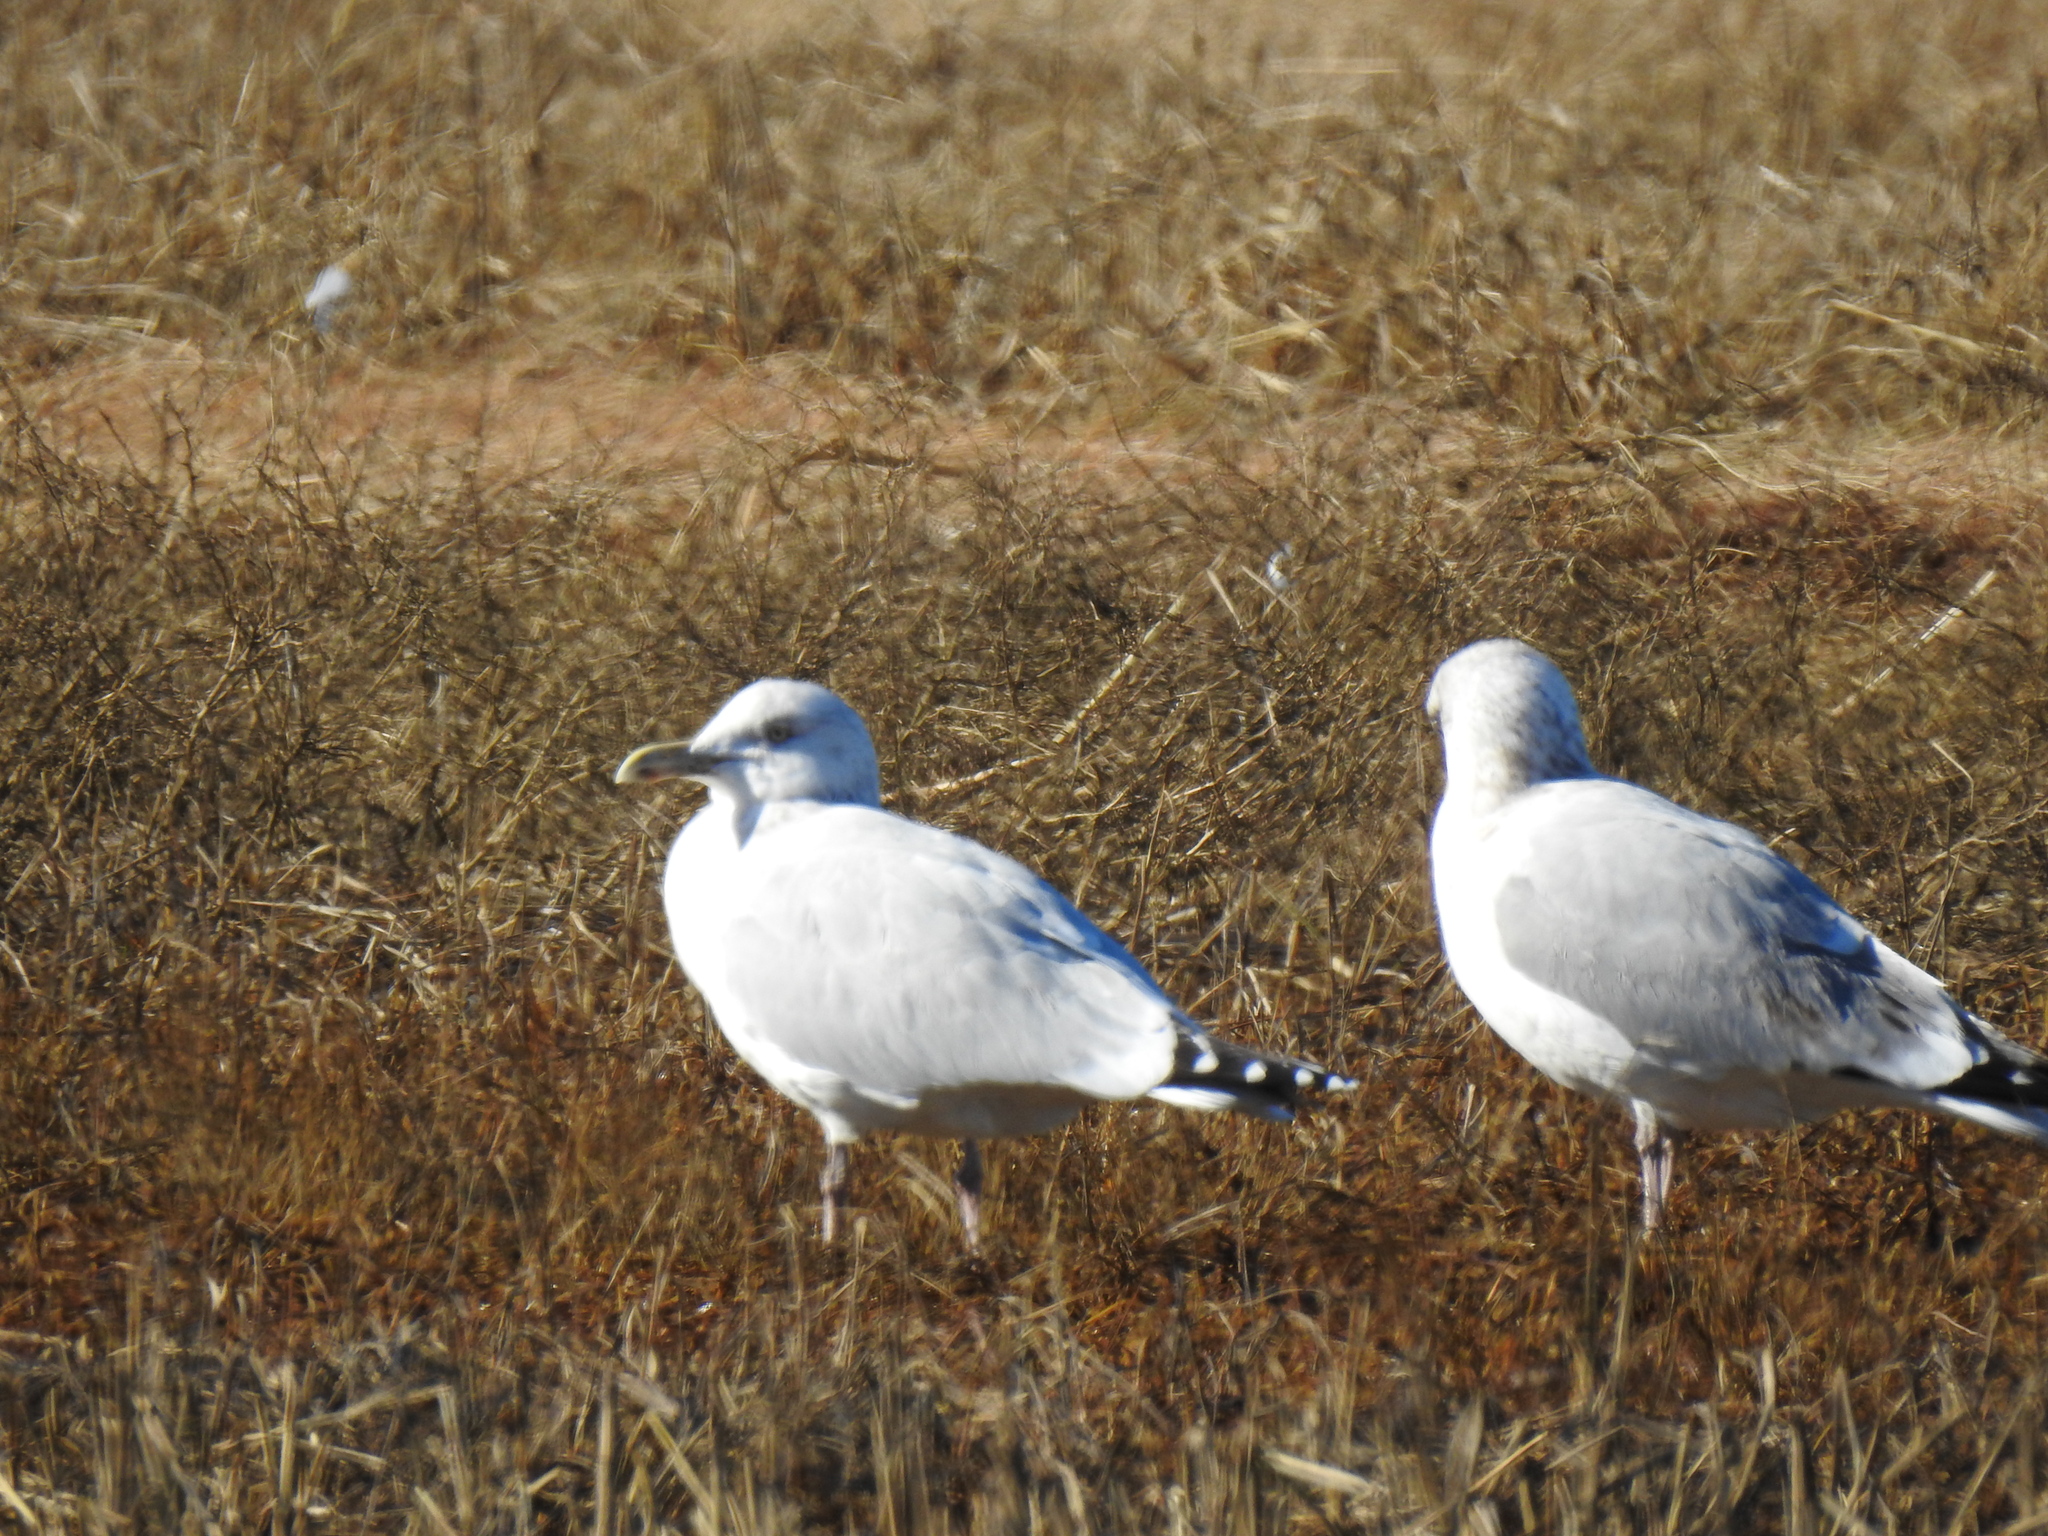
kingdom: Animalia
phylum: Chordata
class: Aves
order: Charadriiformes
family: Laridae
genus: Larus
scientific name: Larus argentatus
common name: Herring gull
